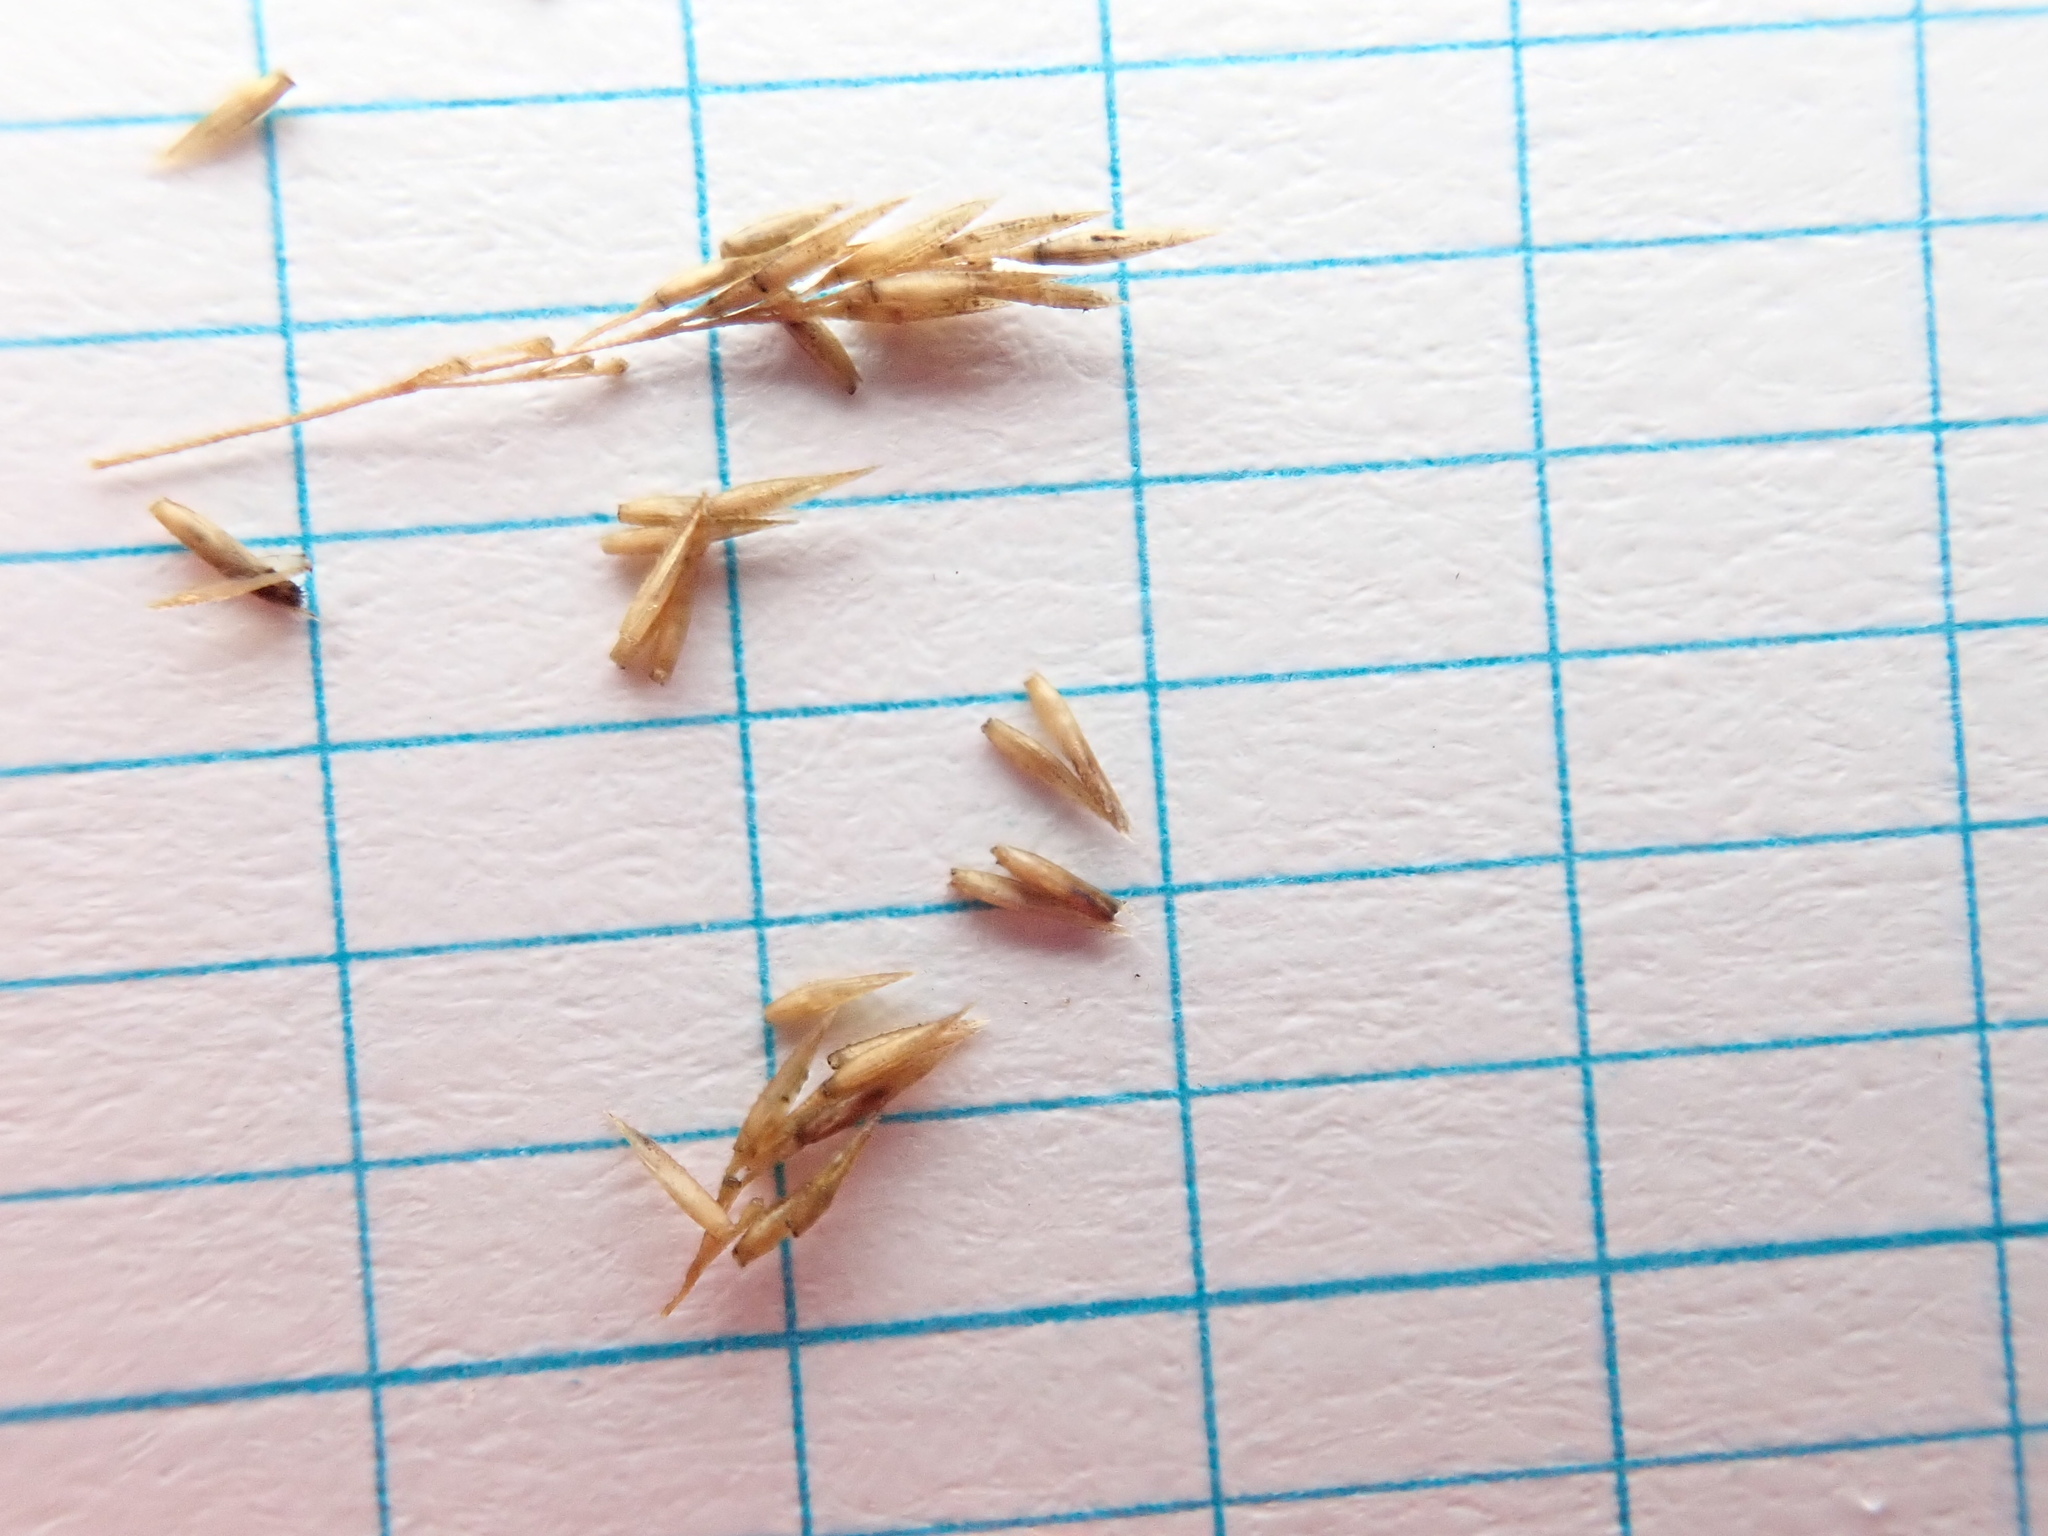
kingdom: Plantae
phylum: Tracheophyta
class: Liliopsida
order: Poales
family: Poaceae
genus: Agrostis
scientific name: Agrostis gigantea
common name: Black bent
